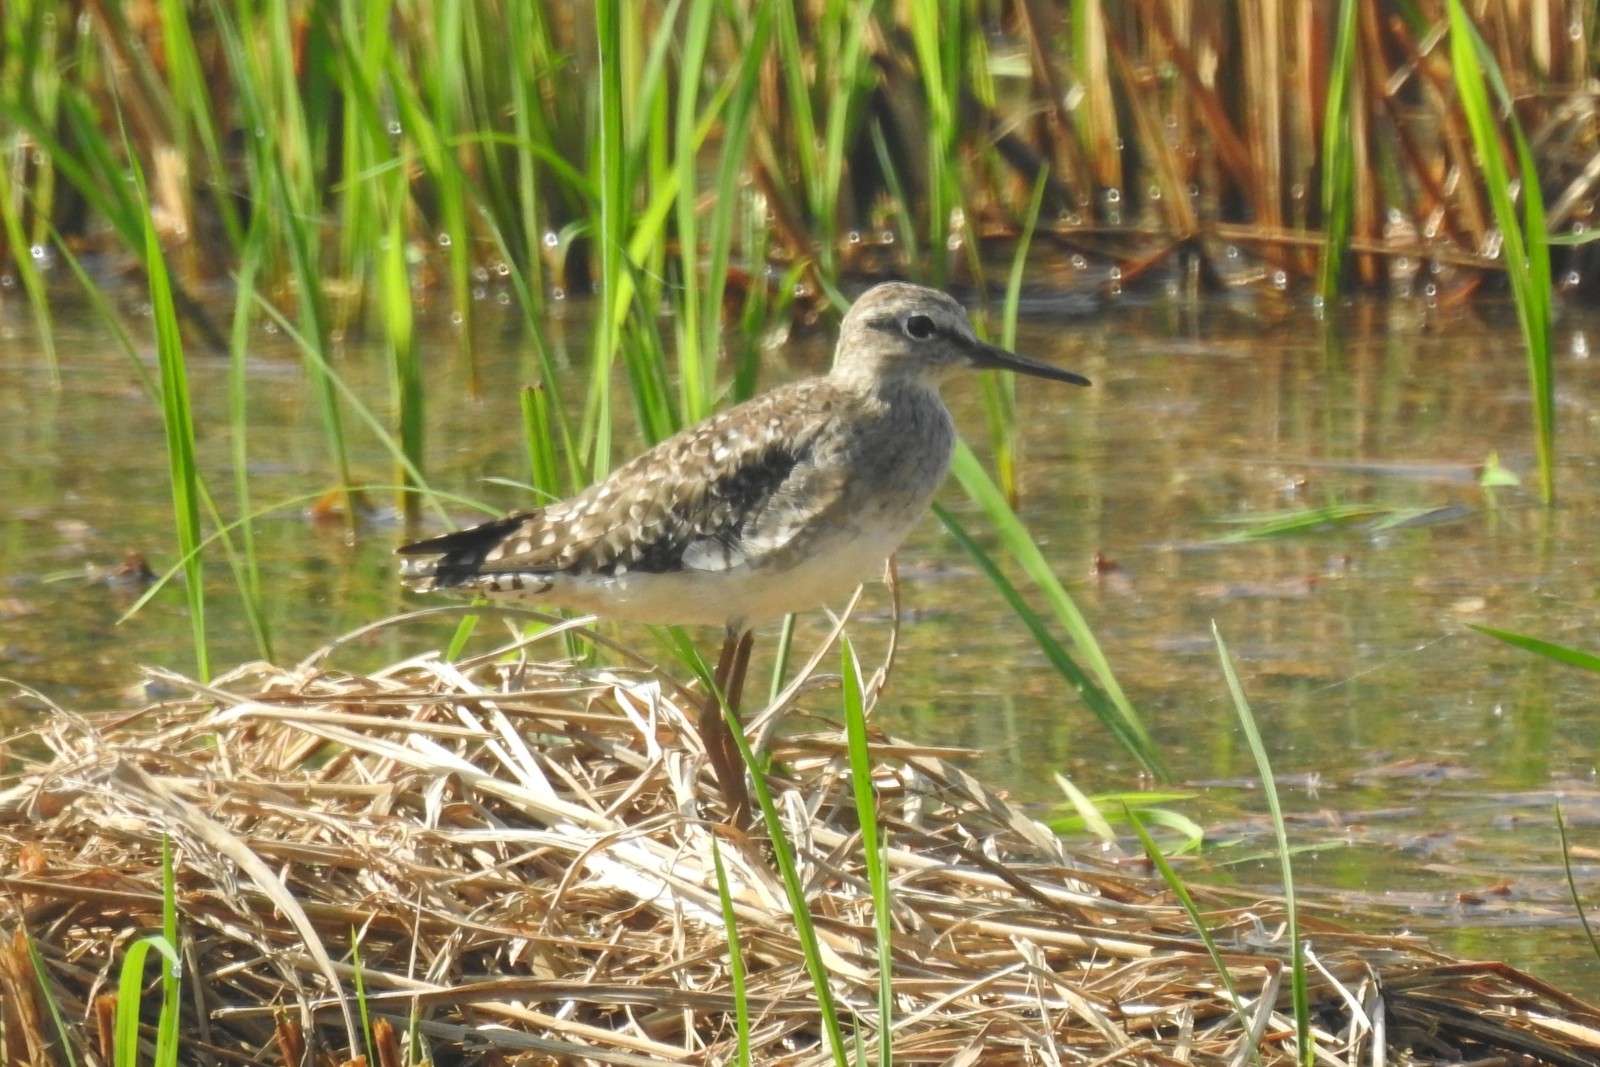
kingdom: Animalia
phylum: Chordata
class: Aves
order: Charadriiformes
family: Scolopacidae
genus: Tringa
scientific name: Tringa glareola
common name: Wood sandpiper
